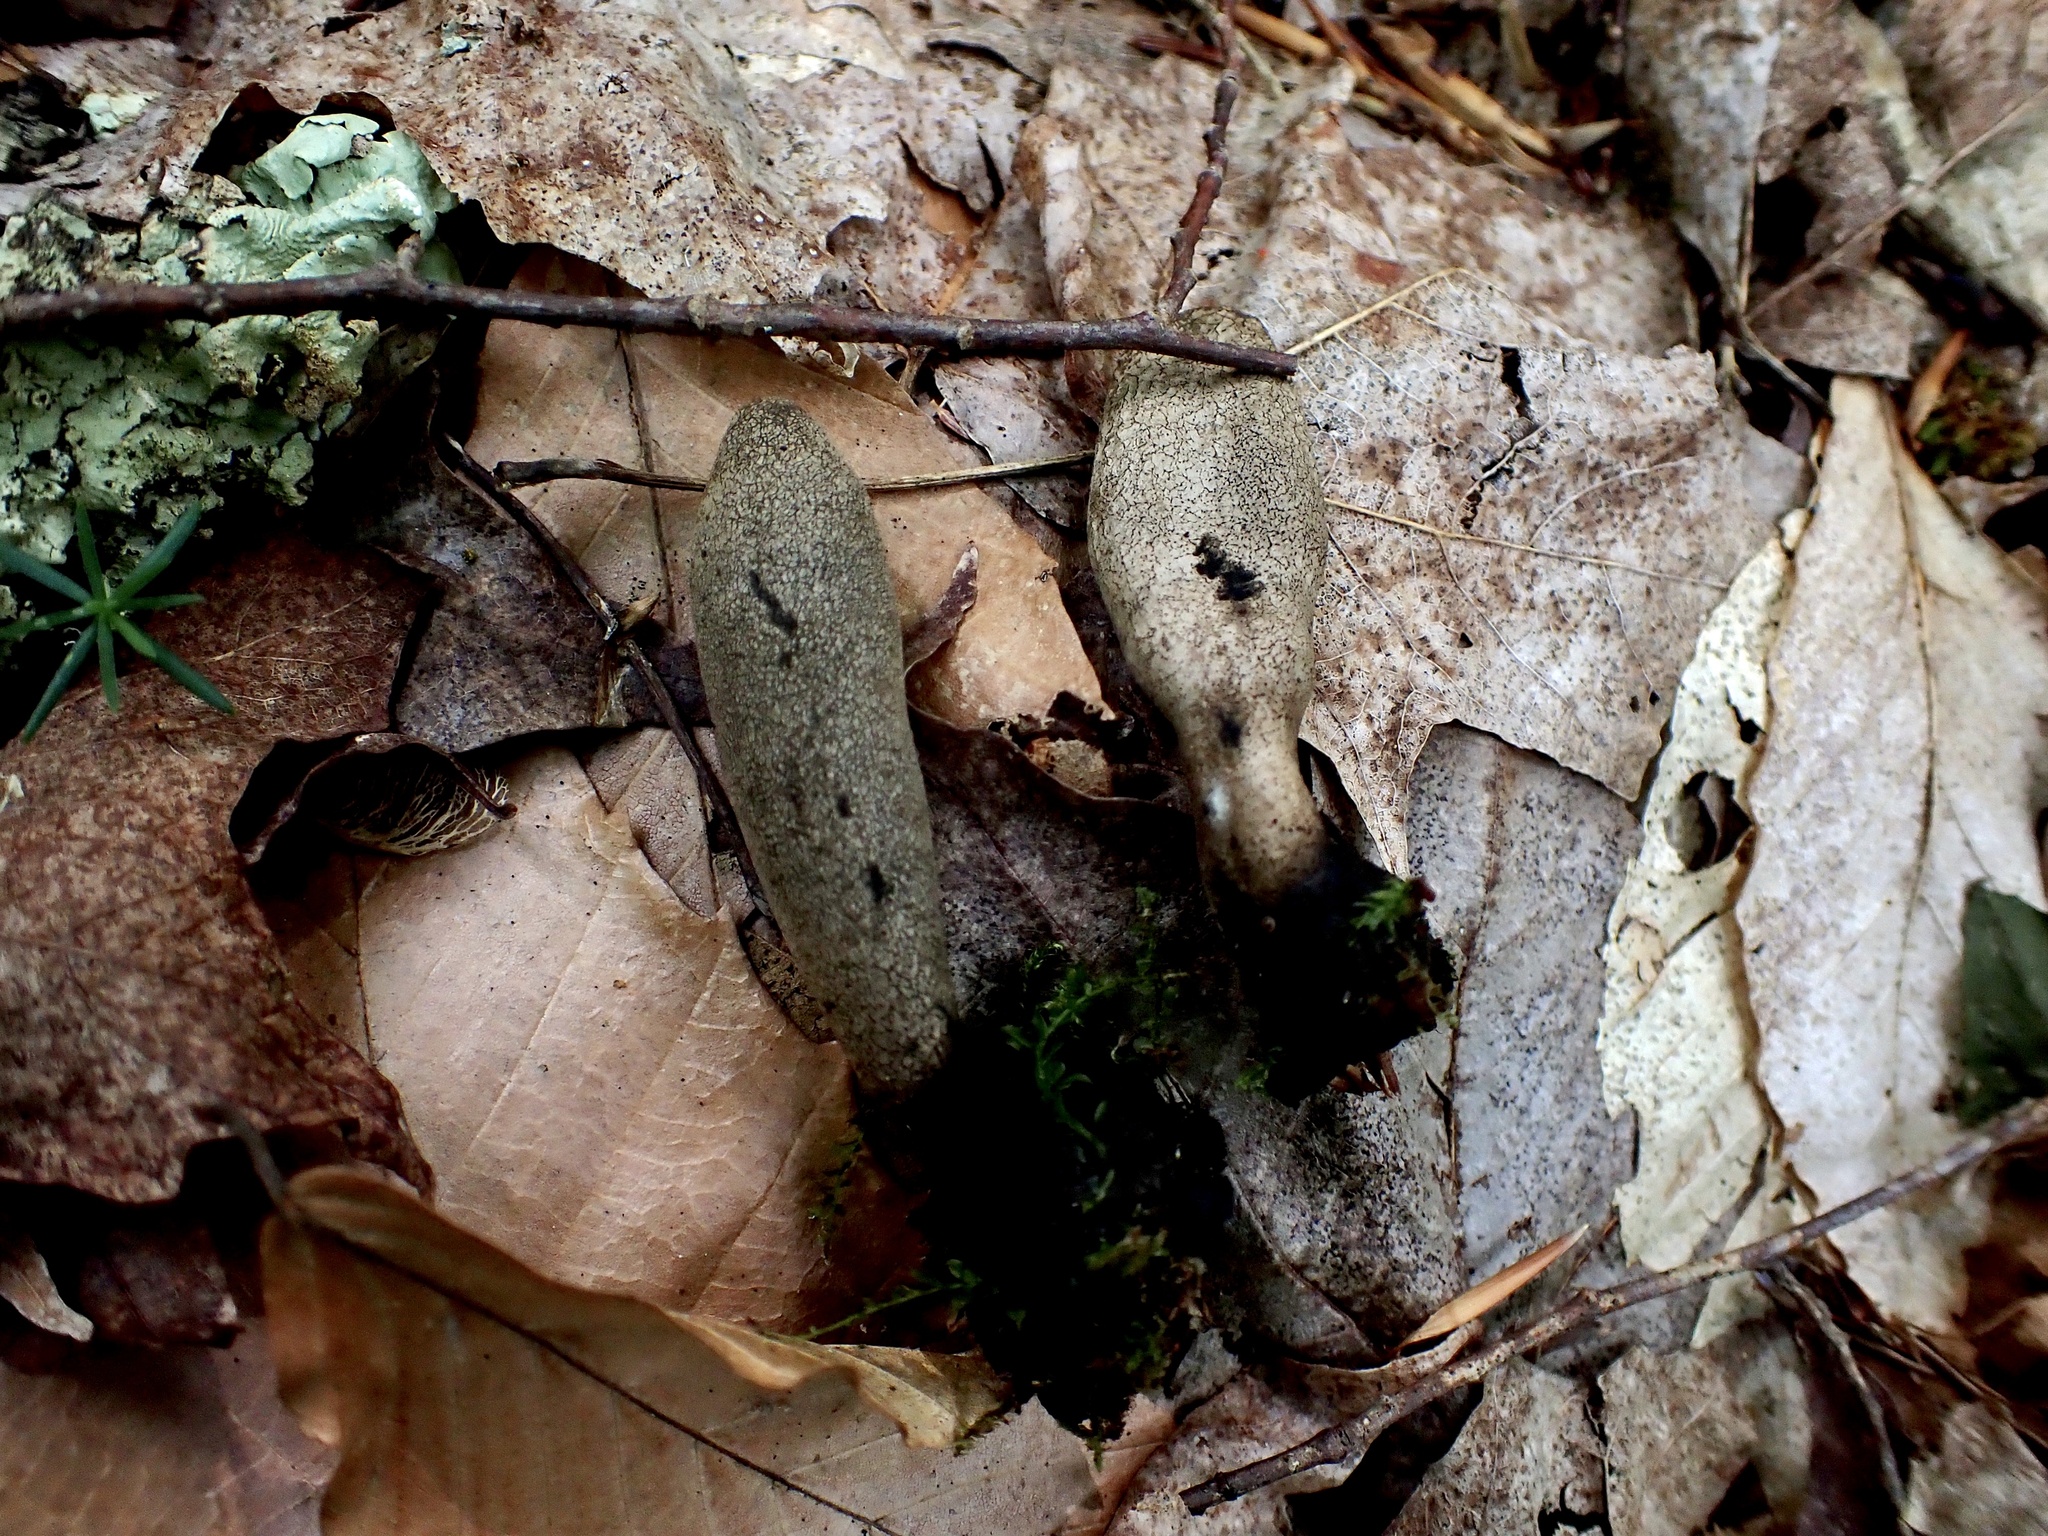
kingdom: Fungi
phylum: Ascomycota
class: Sordariomycetes
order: Xylariales
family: Xylariaceae
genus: Xylaria
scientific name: Xylaria longipes
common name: Dead moll's fingers
